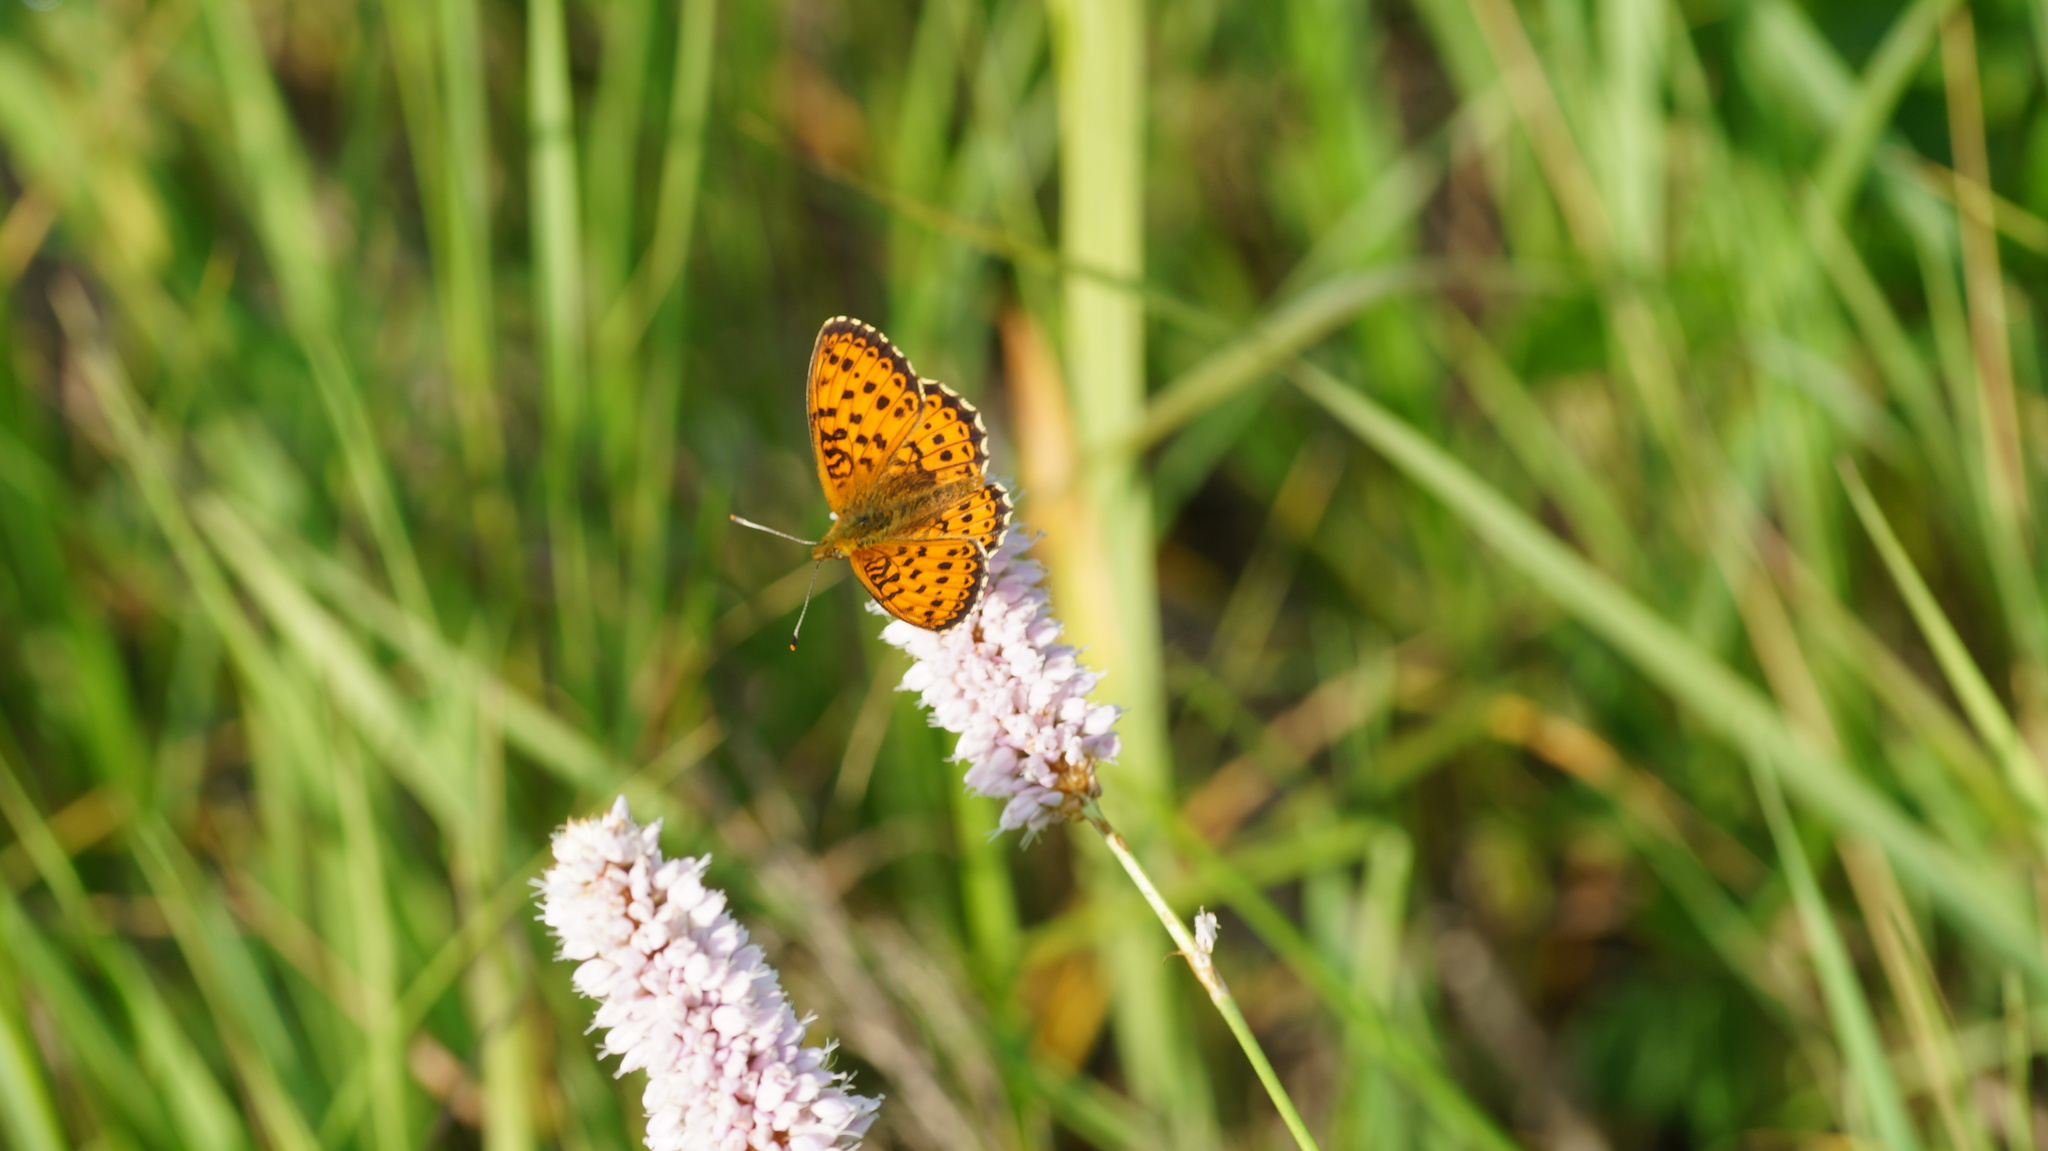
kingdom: Animalia
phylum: Arthropoda
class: Insecta
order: Lepidoptera
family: Nymphalidae
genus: Brenthis
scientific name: Brenthis ino
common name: Lesser marbled fritillary
